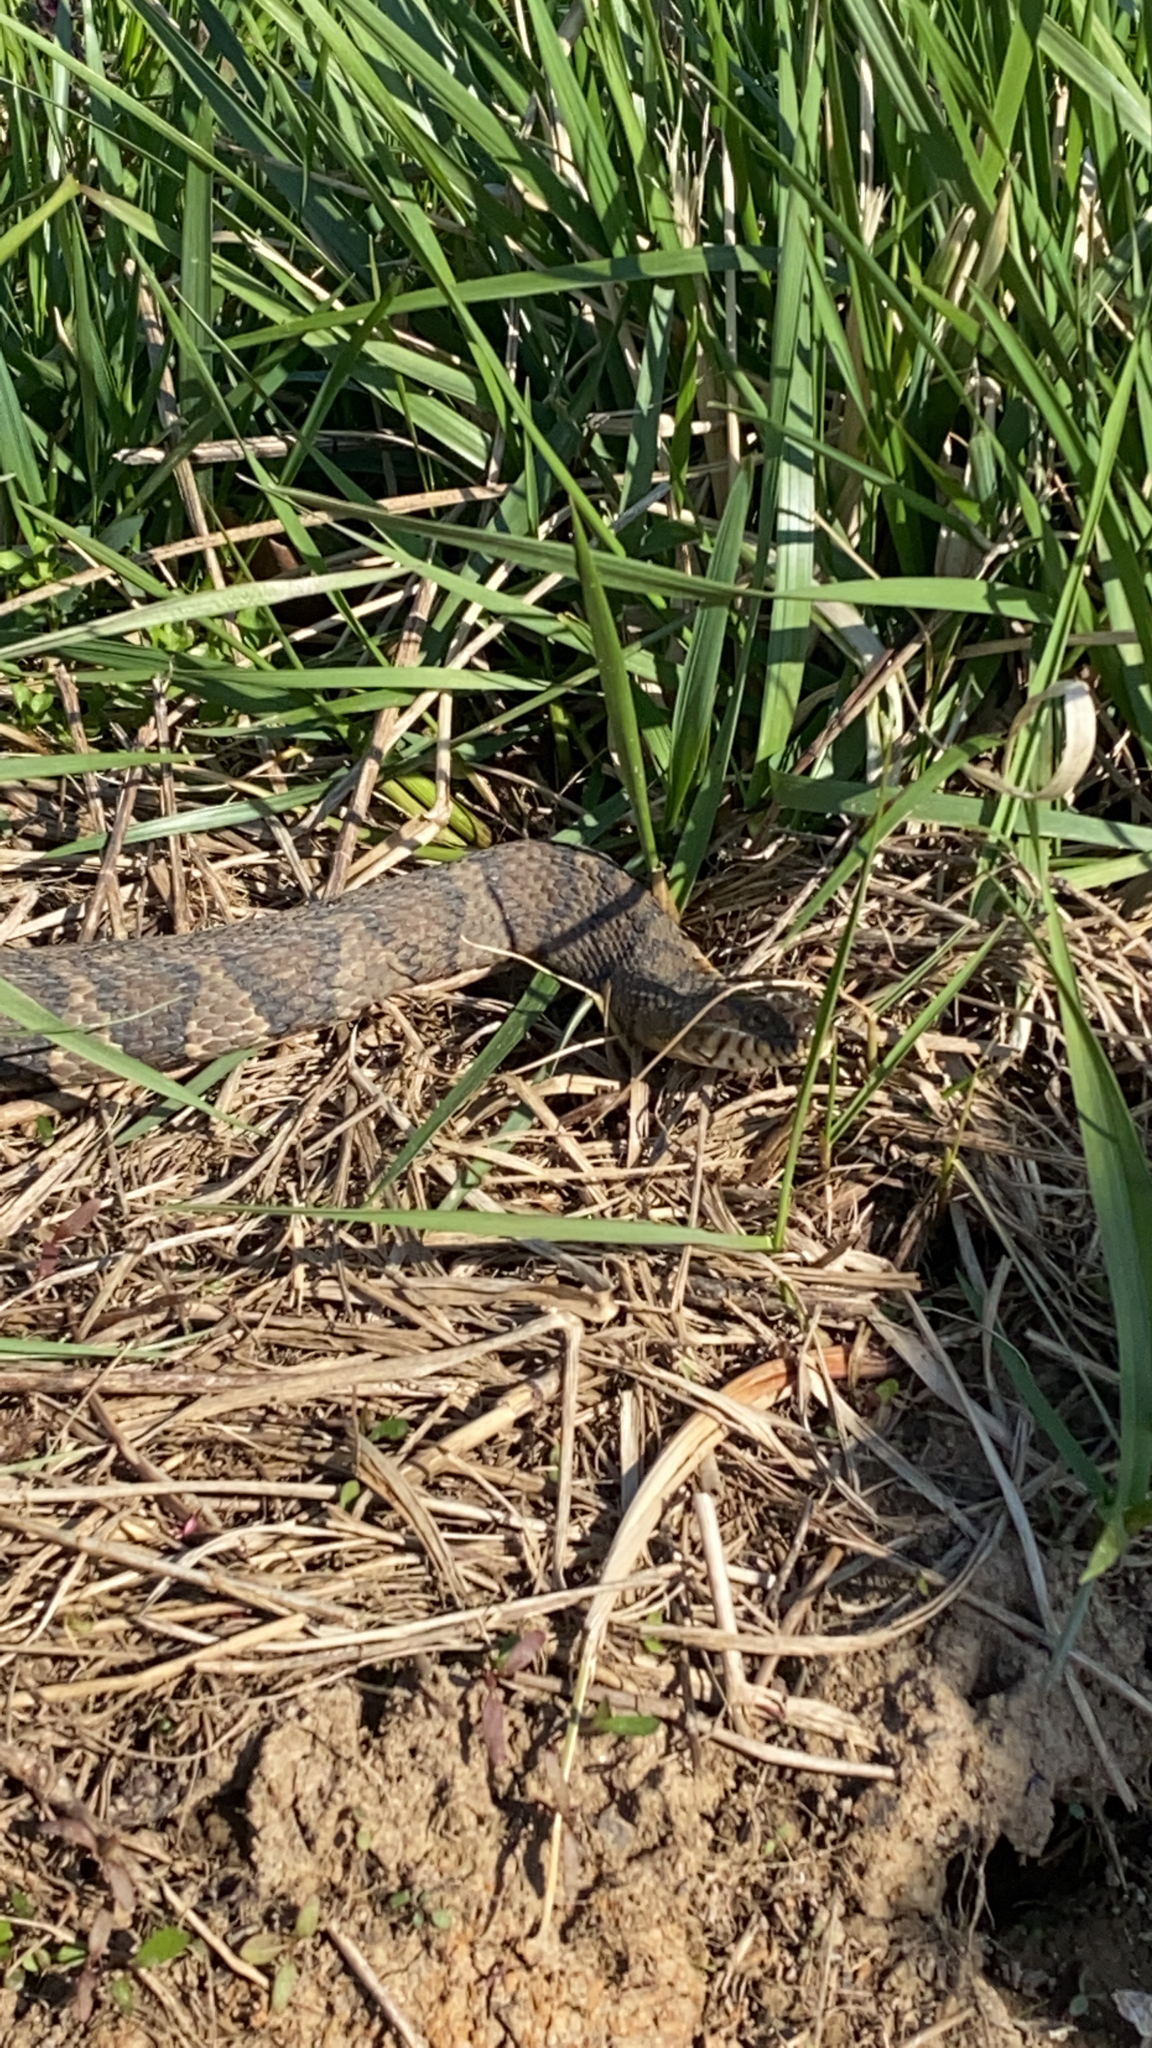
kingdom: Animalia
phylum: Chordata
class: Squamata
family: Colubridae
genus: Nerodia
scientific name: Nerodia sipedon
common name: Northern water snake
